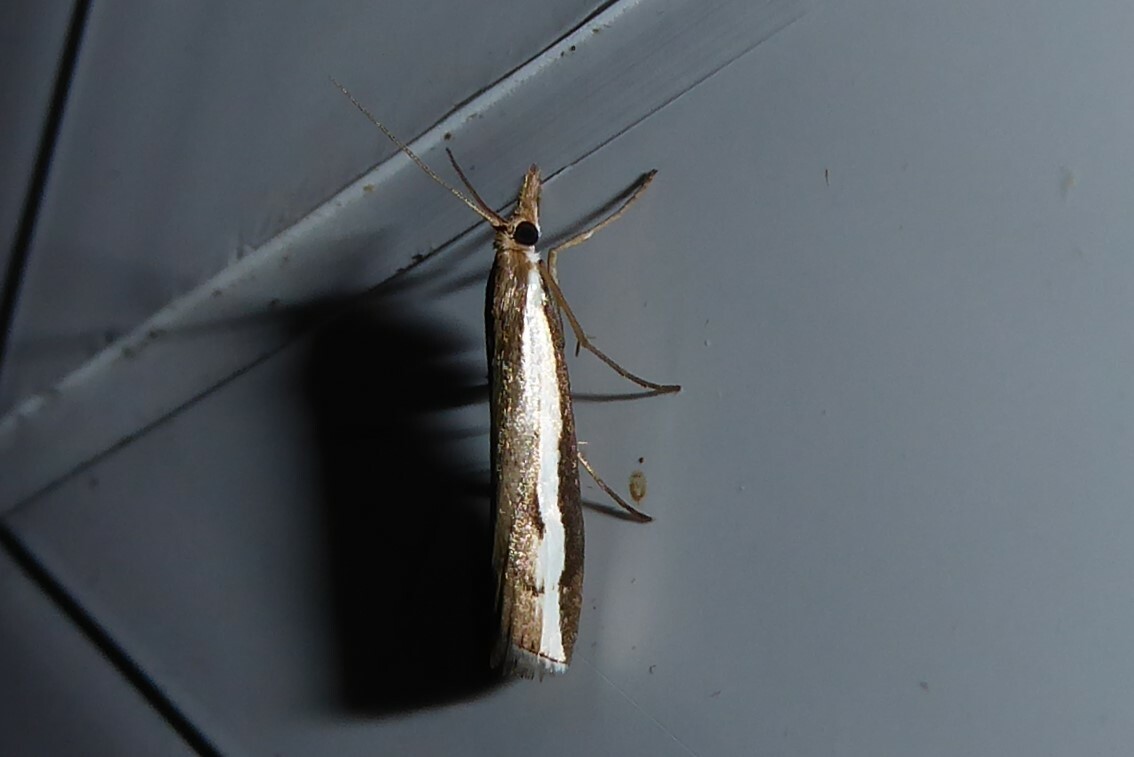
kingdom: Animalia
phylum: Arthropoda
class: Insecta
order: Lepidoptera
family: Crambidae
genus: Orocrambus
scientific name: Orocrambus flexuosellus
